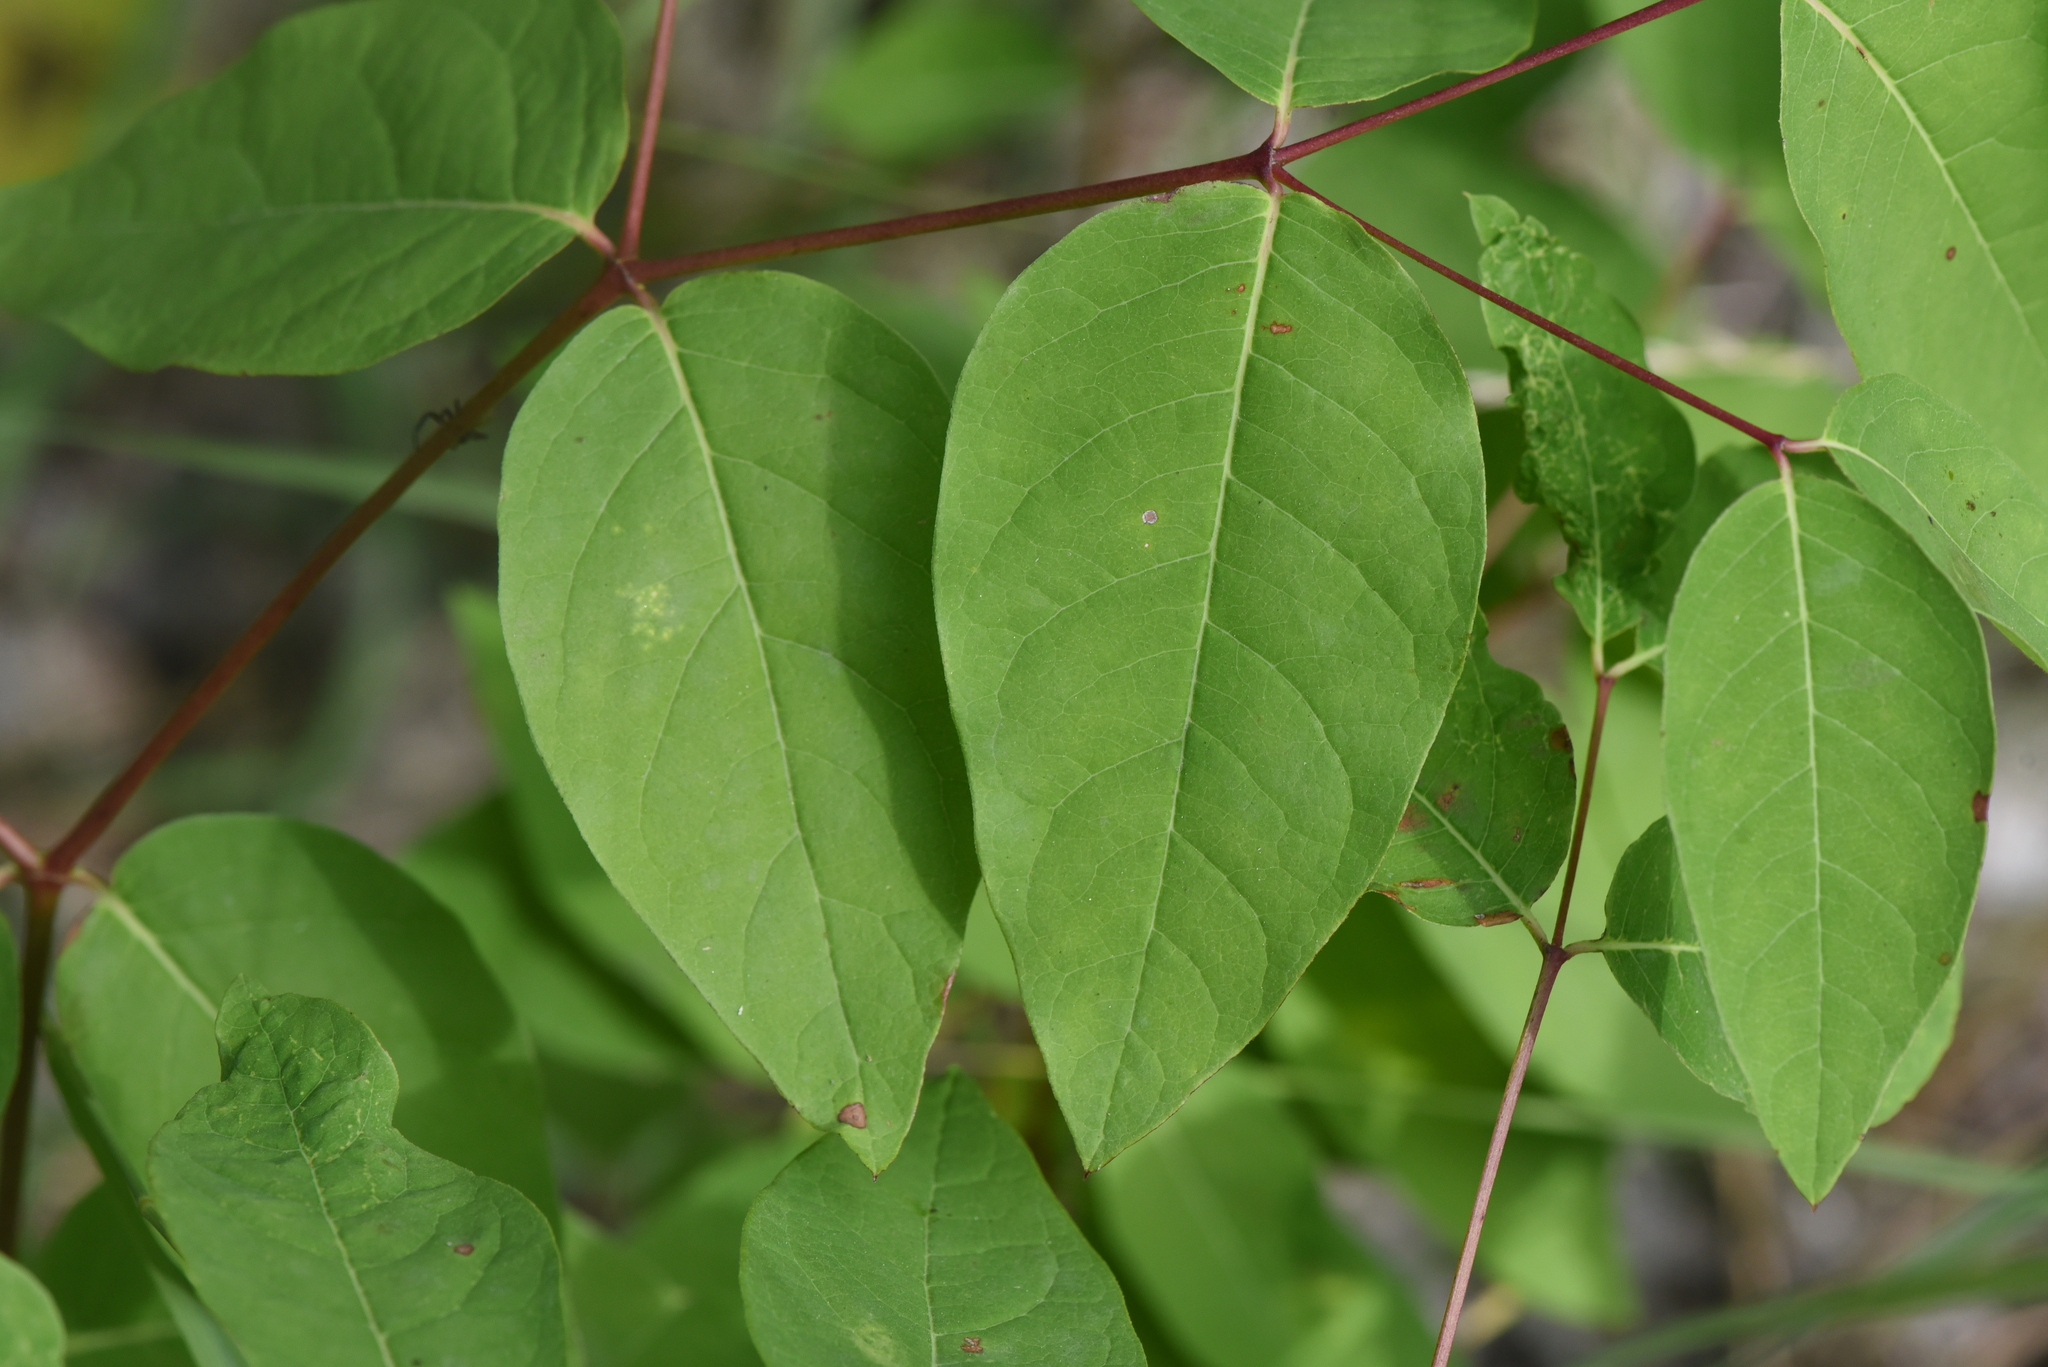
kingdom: Plantae
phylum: Tracheophyta
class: Magnoliopsida
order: Gentianales
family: Apocynaceae
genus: Apocynum
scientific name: Apocynum androsaemifolium
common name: Spreading dogbane
